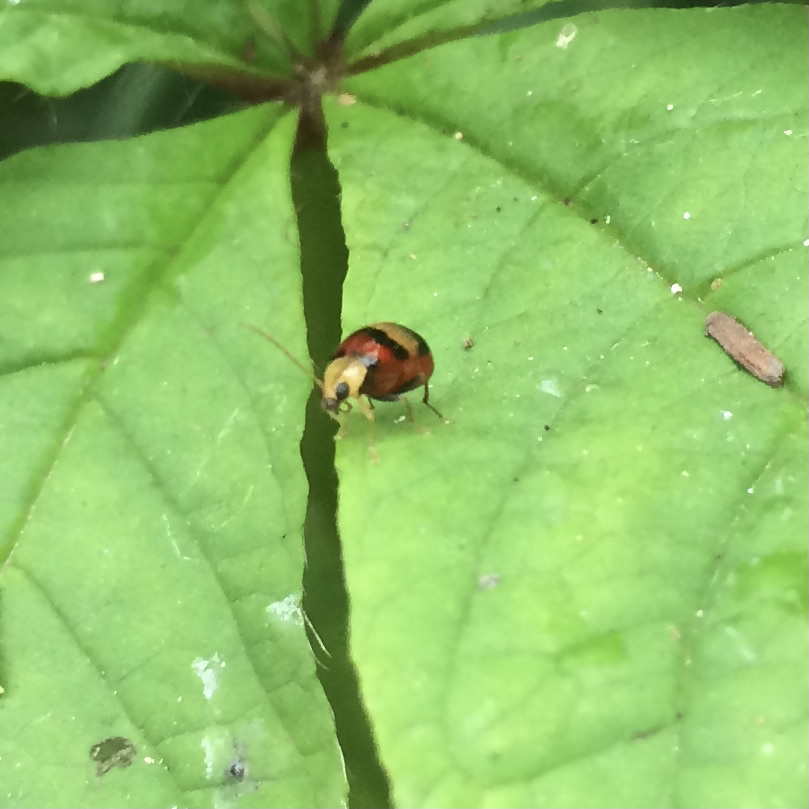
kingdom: Animalia
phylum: Arthropoda
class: Insecta
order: Coleoptera
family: Chrysomelidae
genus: Monolepta
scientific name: Monolepta
